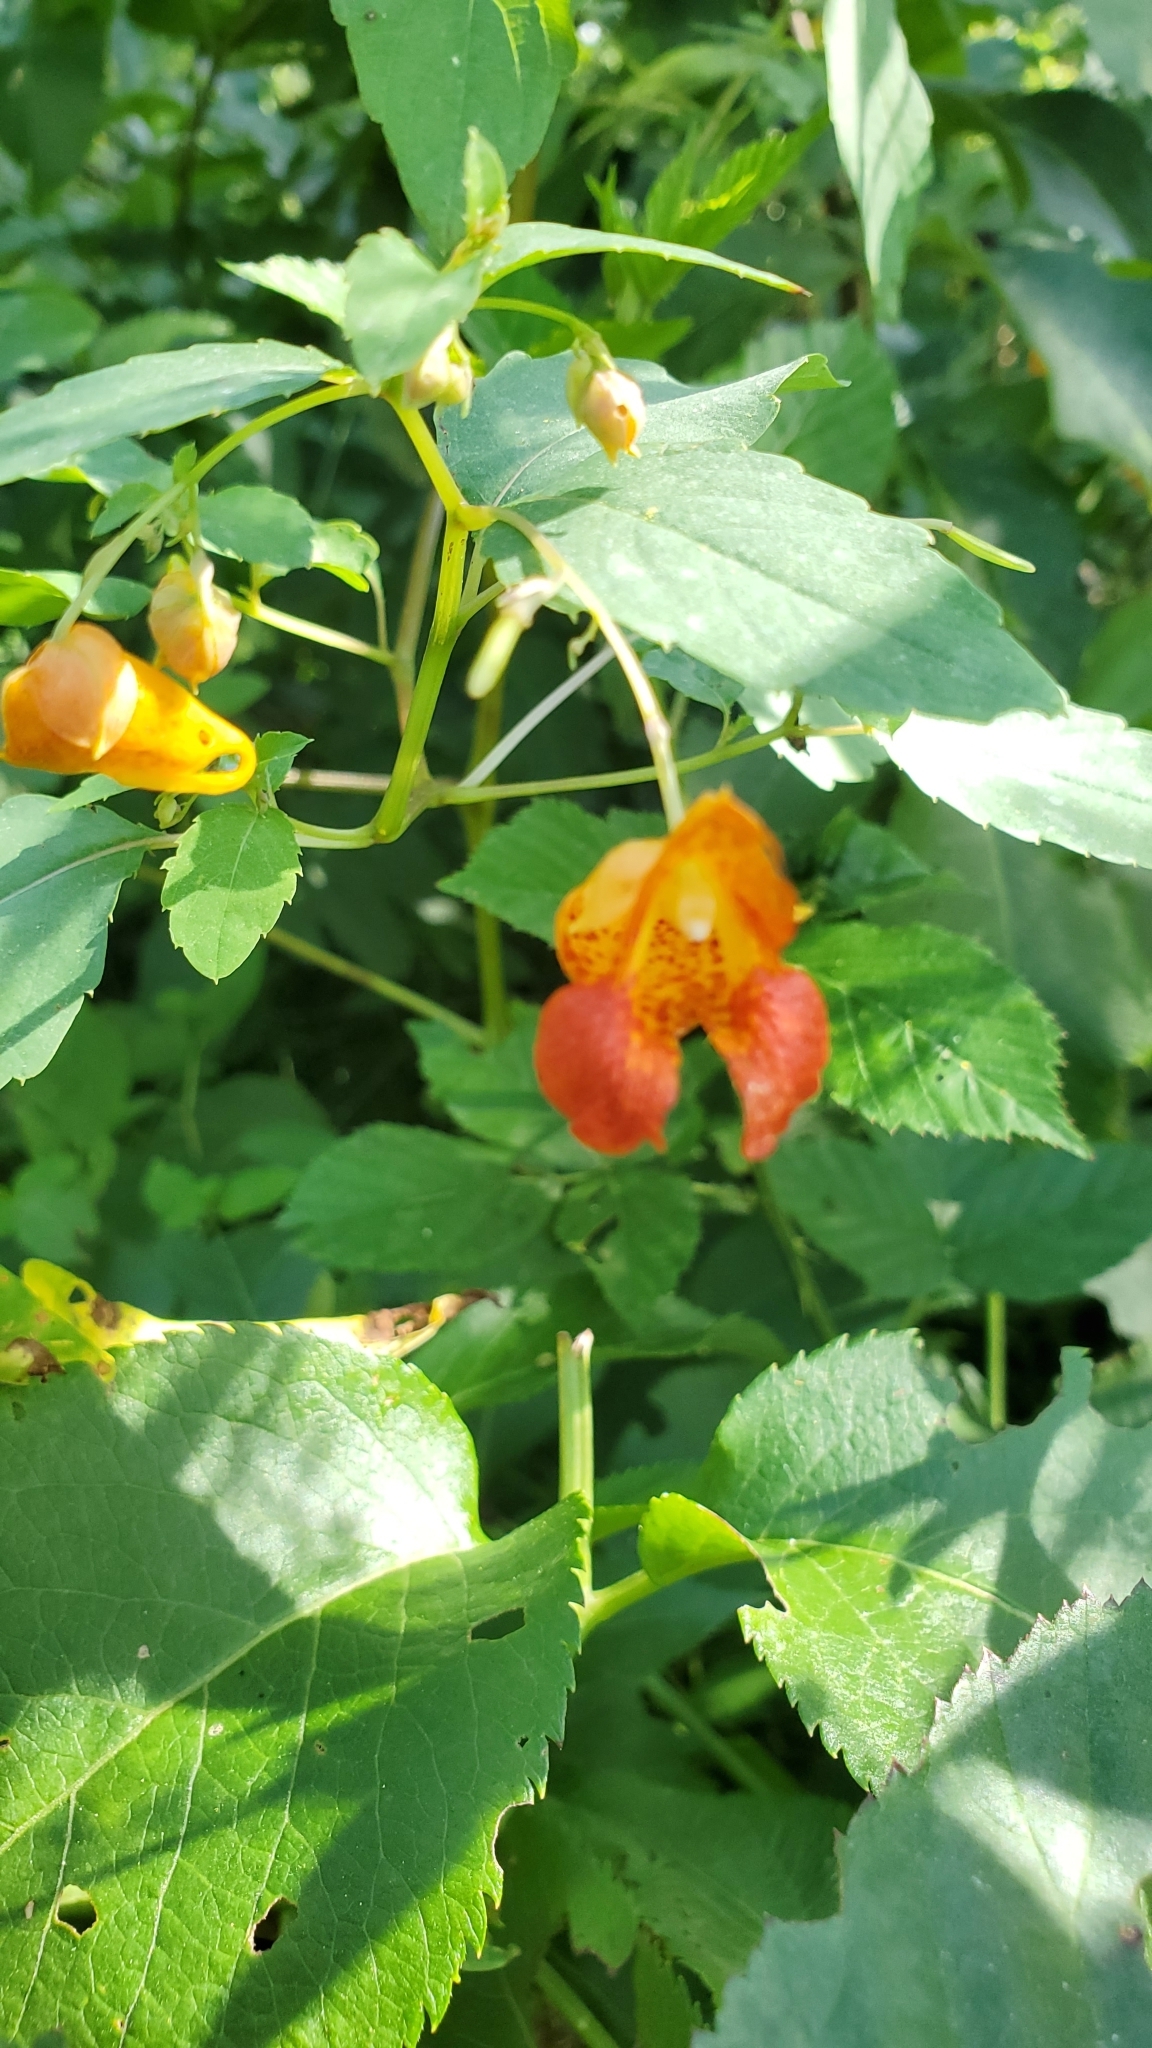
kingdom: Plantae
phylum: Tracheophyta
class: Magnoliopsida
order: Ericales
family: Balsaminaceae
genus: Impatiens
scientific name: Impatiens capensis
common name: Orange balsam
